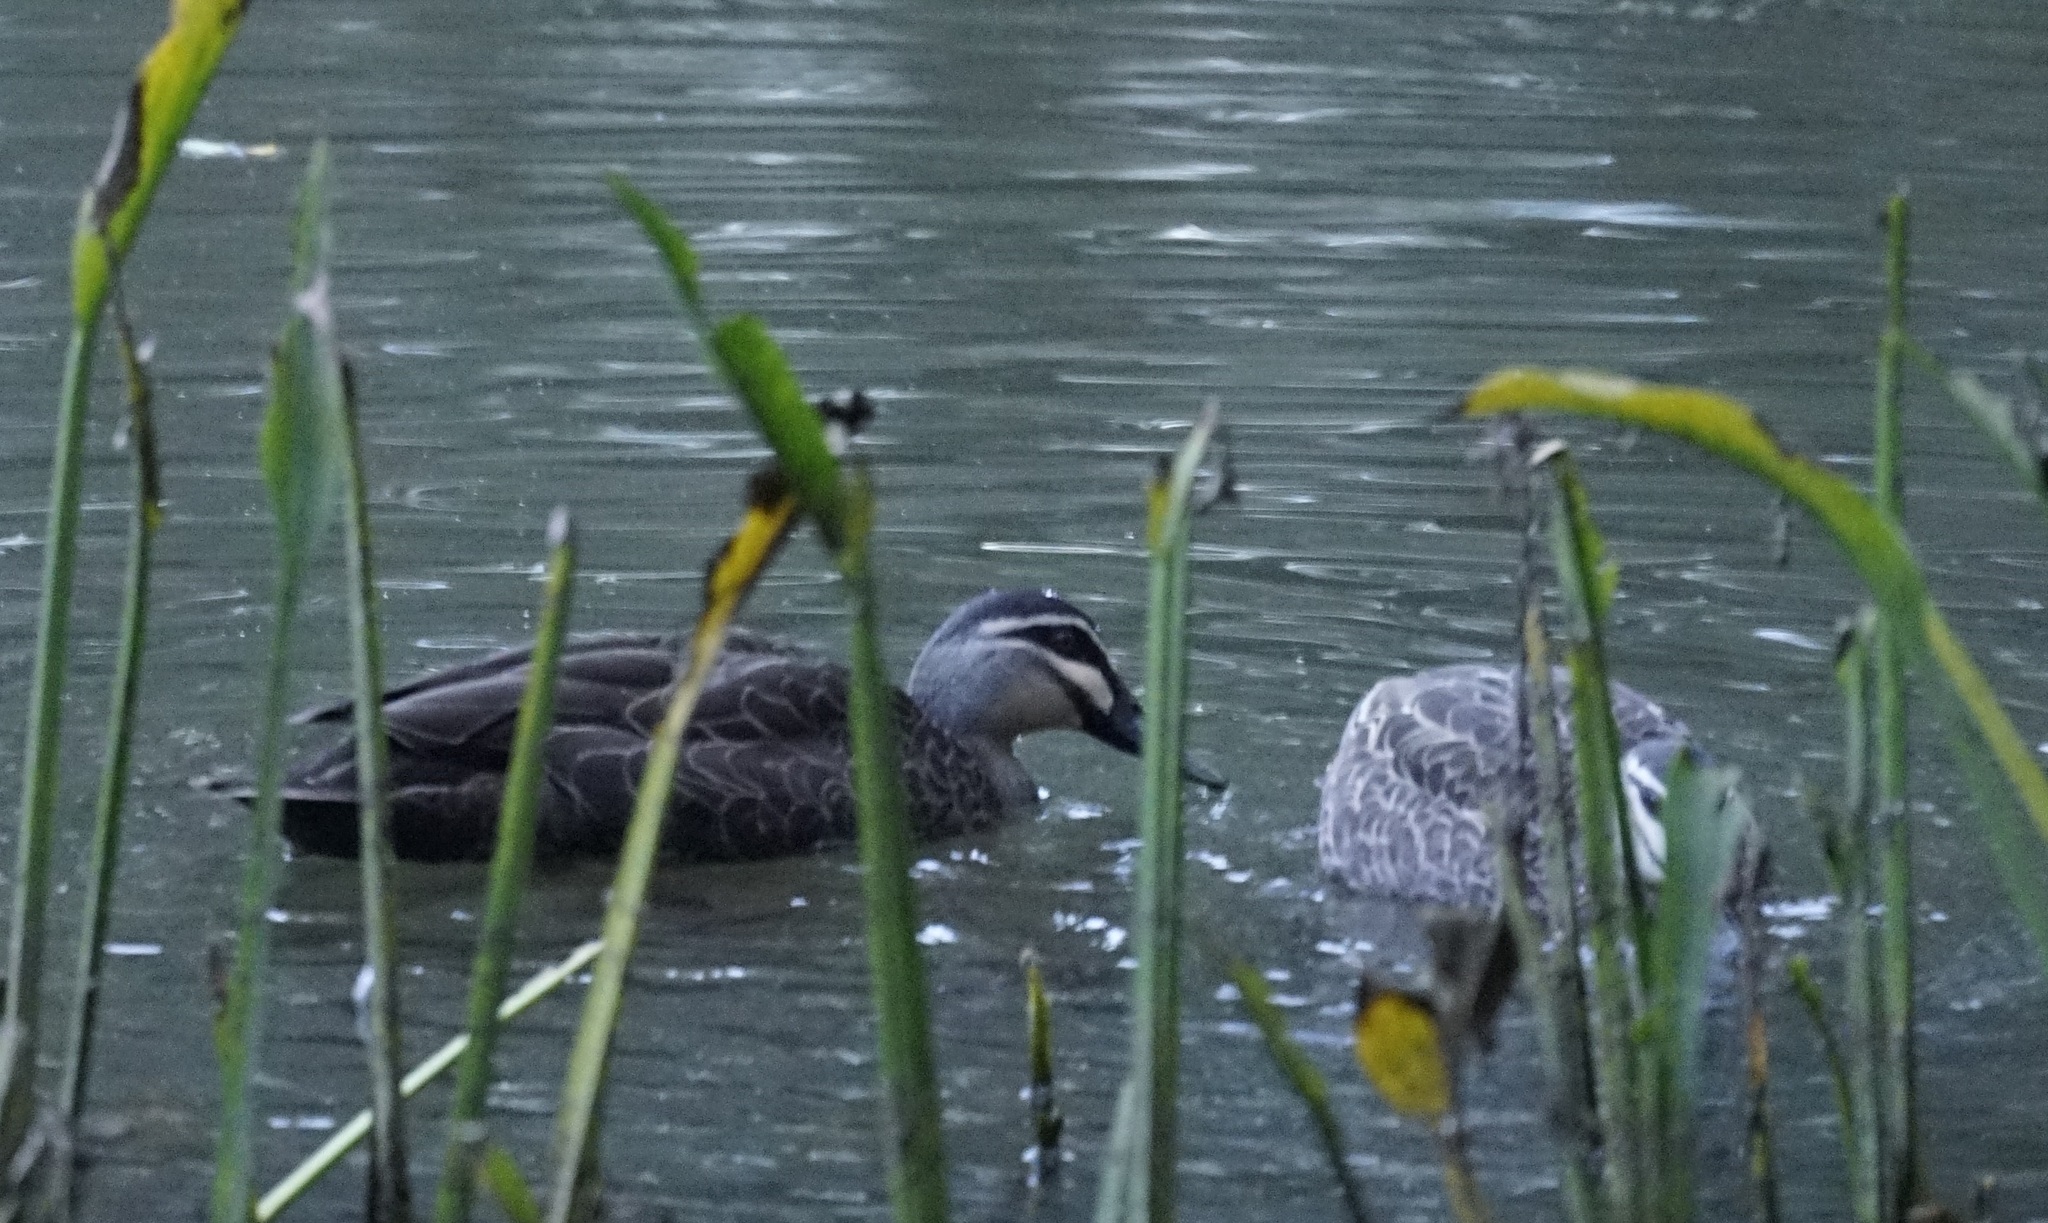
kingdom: Animalia
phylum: Chordata
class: Aves
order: Anseriformes
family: Anatidae
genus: Anas
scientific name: Anas superciliosa
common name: Pacific black duck
